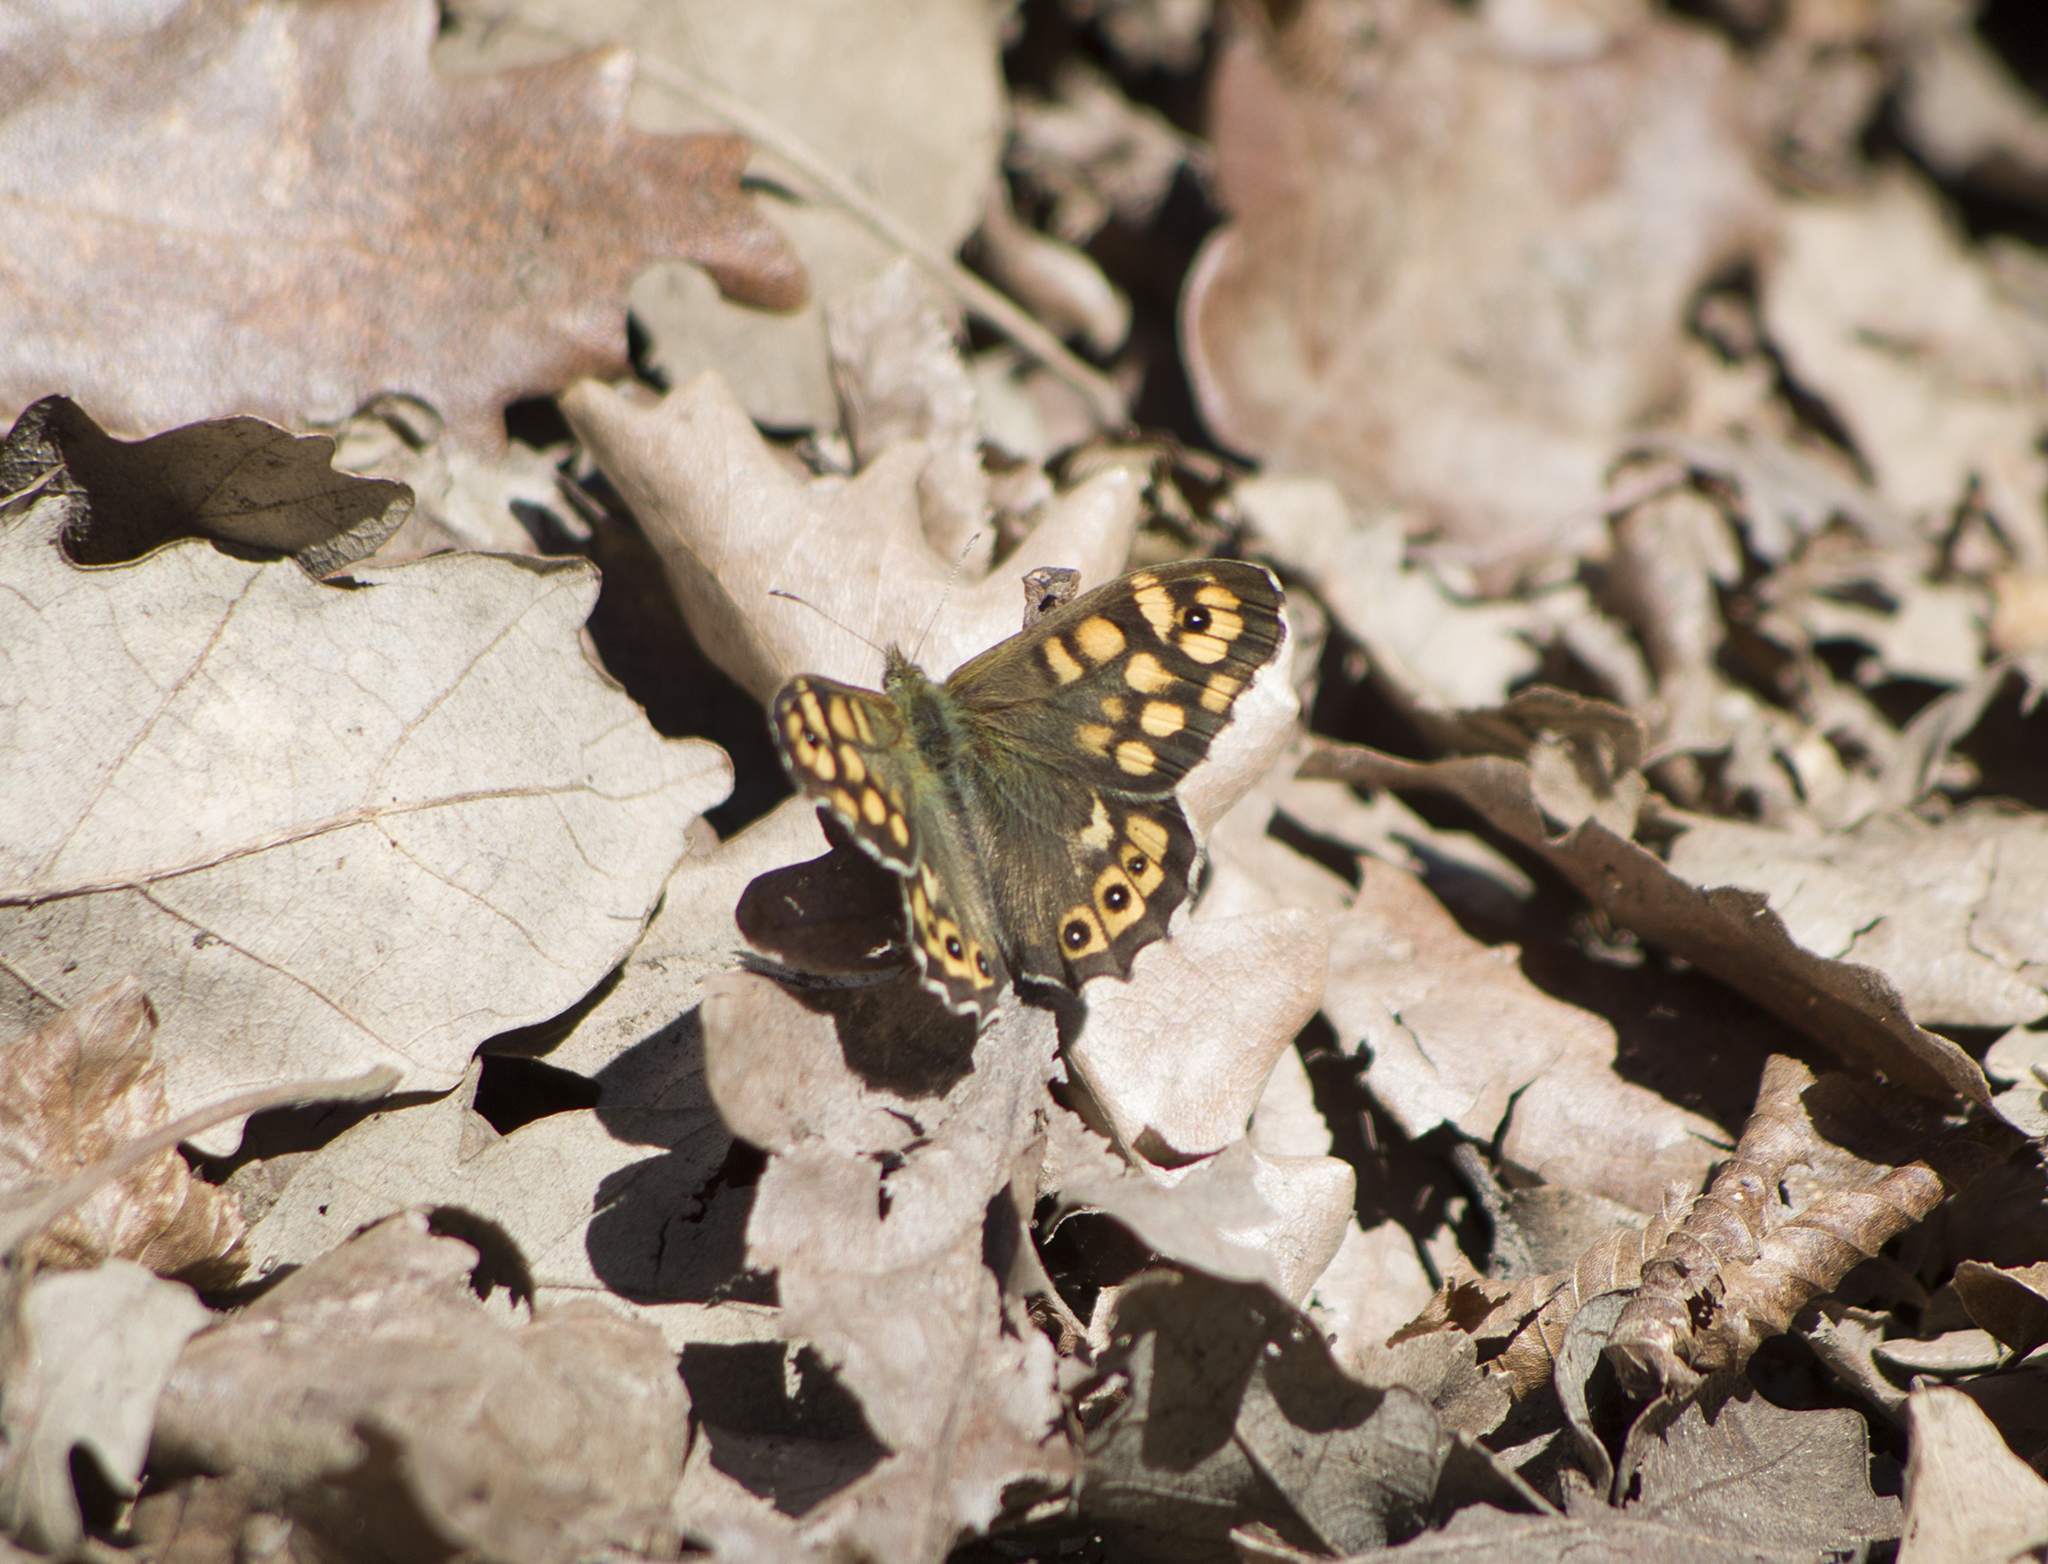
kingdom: Animalia
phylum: Arthropoda
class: Insecta
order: Lepidoptera
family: Nymphalidae
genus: Pararge
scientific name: Pararge aegeria
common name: Speckled wood
